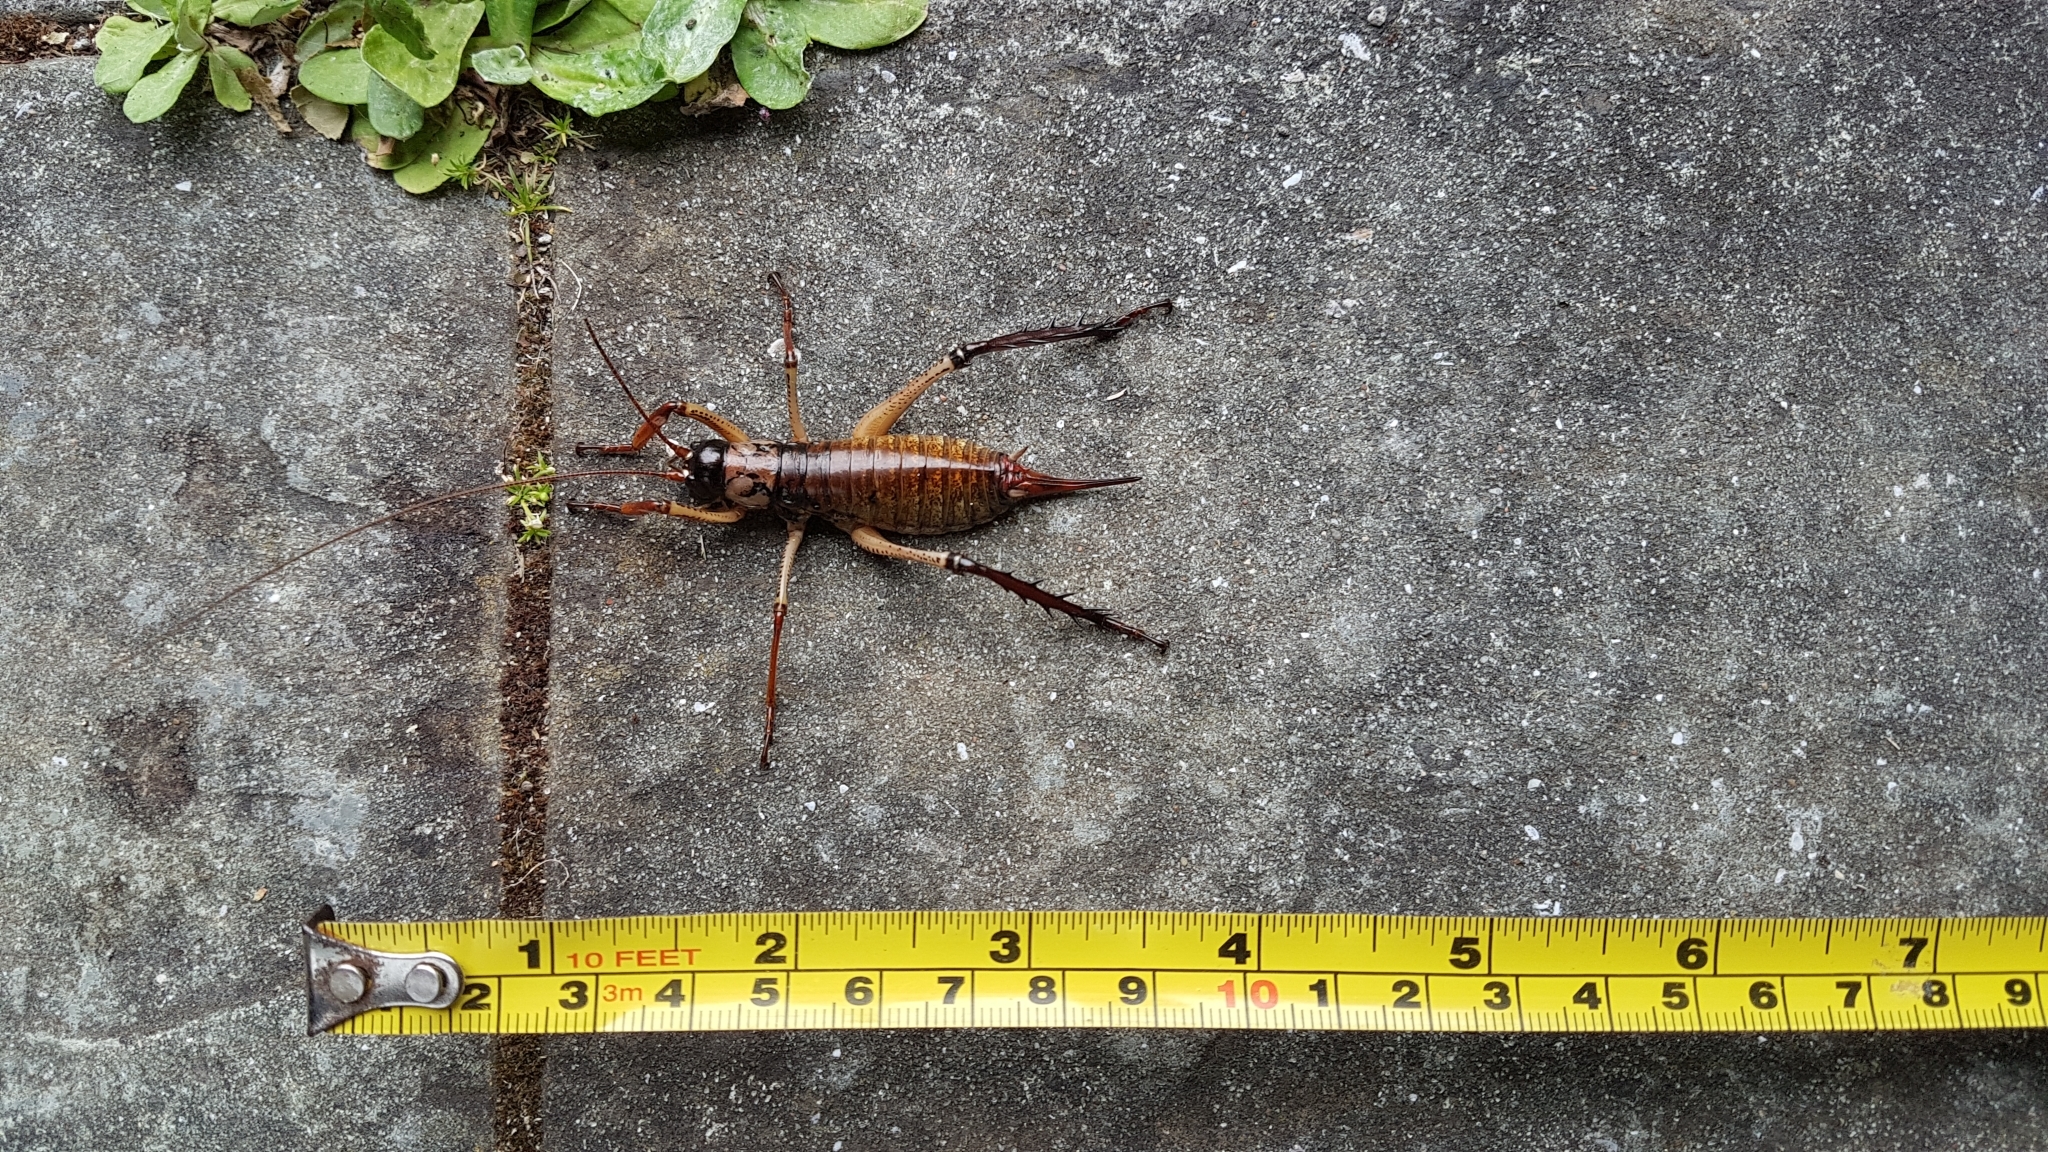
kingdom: Animalia
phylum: Arthropoda
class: Insecta
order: Orthoptera
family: Anostostomatidae
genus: Hemideina
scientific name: Hemideina thoracica
